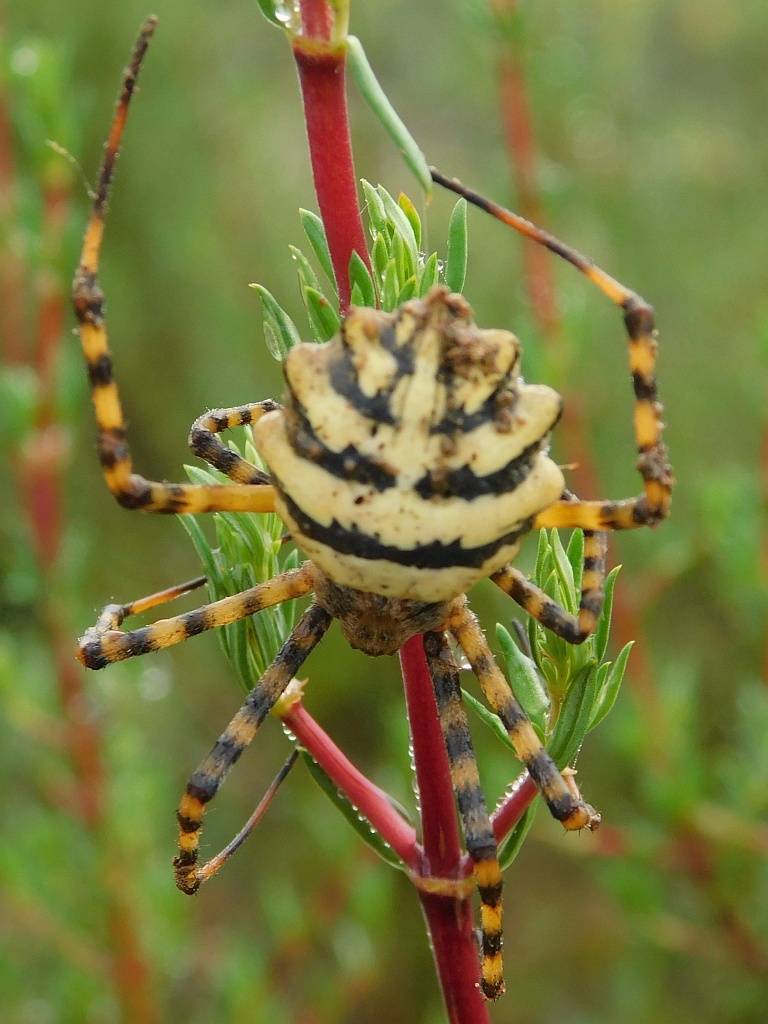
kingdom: Animalia
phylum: Arthropoda
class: Arachnida
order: Araneae
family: Araneidae
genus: Argiope
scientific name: Argiope australis
